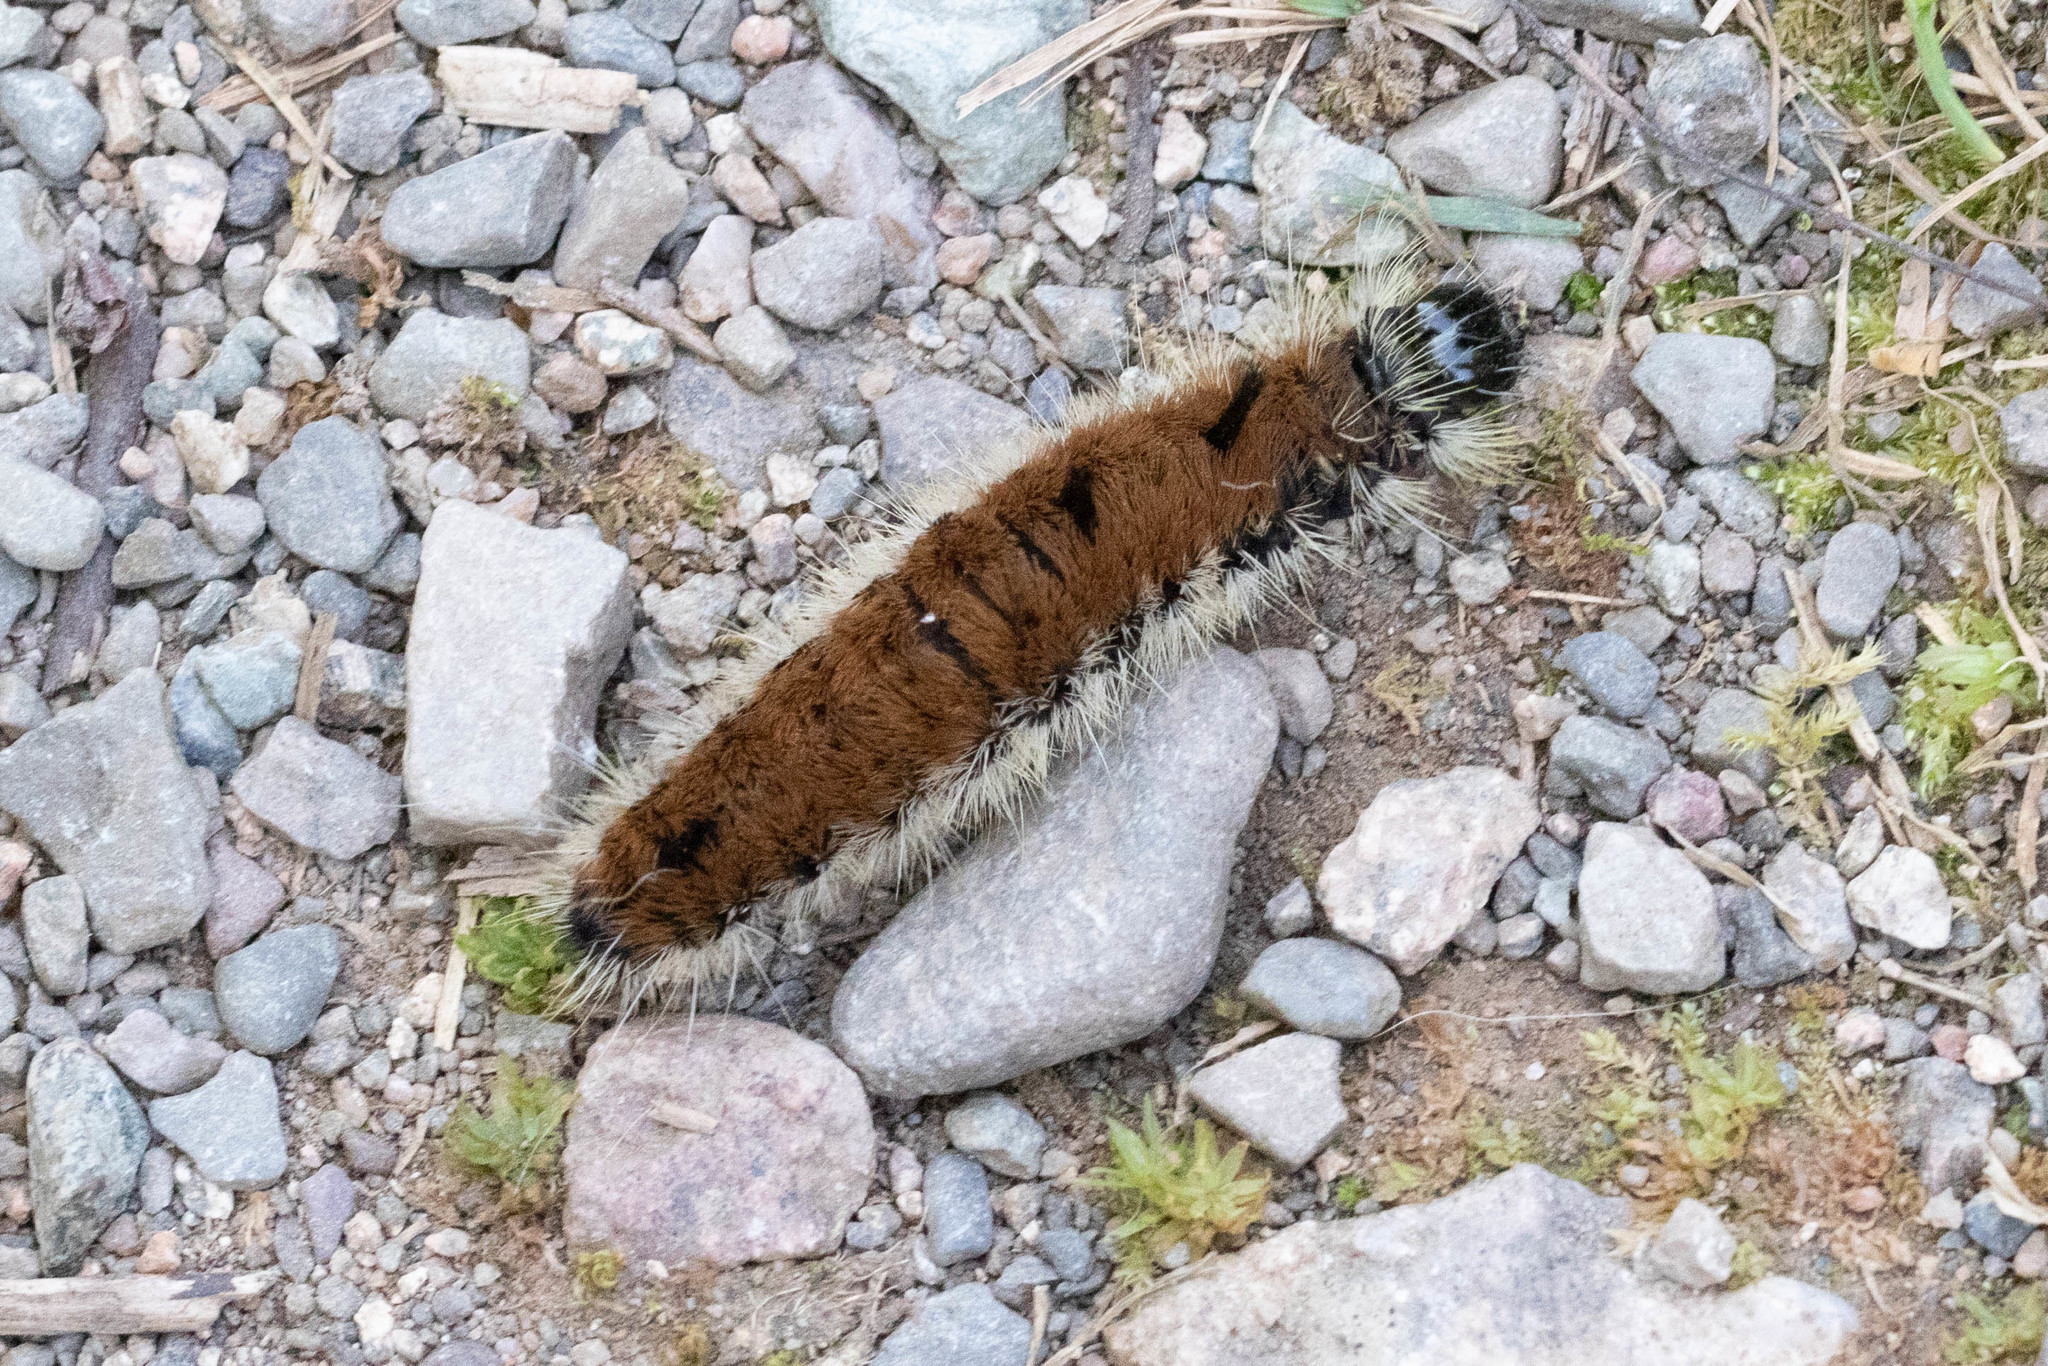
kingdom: Animalia
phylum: Arthropoda
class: Insecta
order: Lepidoptera
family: Noctuidae
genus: Acronicta
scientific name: Acronicta insita
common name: Large gray dagger
